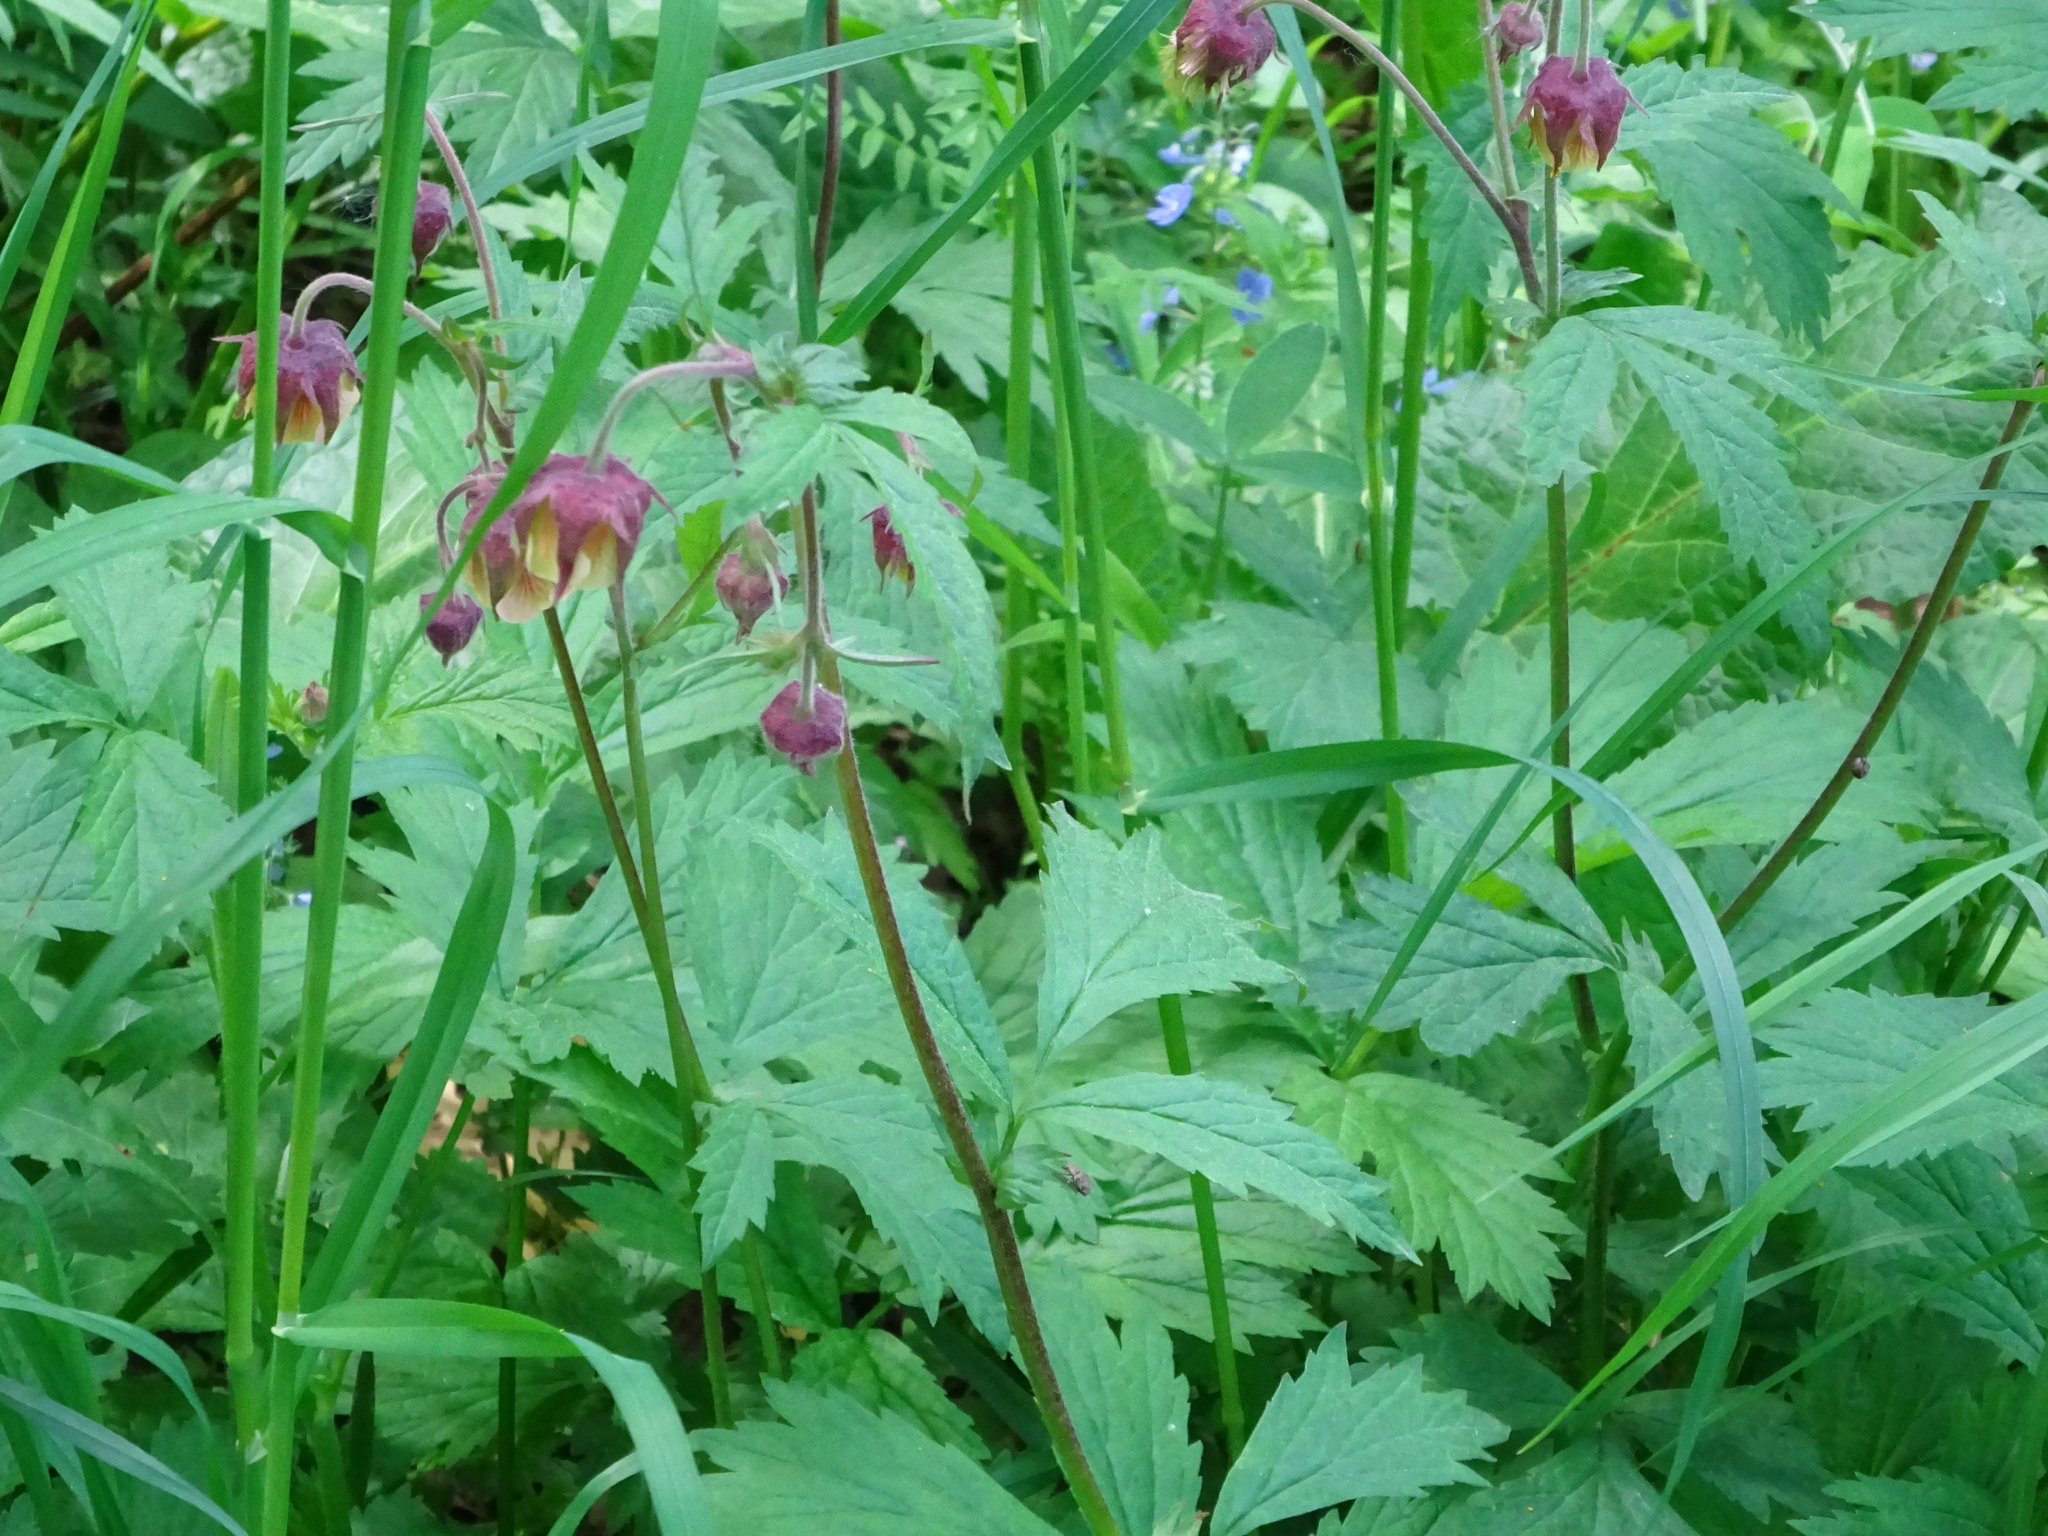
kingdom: Plantae
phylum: Tracheophyta
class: Magnoliopsida
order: Rosales
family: Rosaceae
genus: Geum
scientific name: Geum rivale
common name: Water avens
